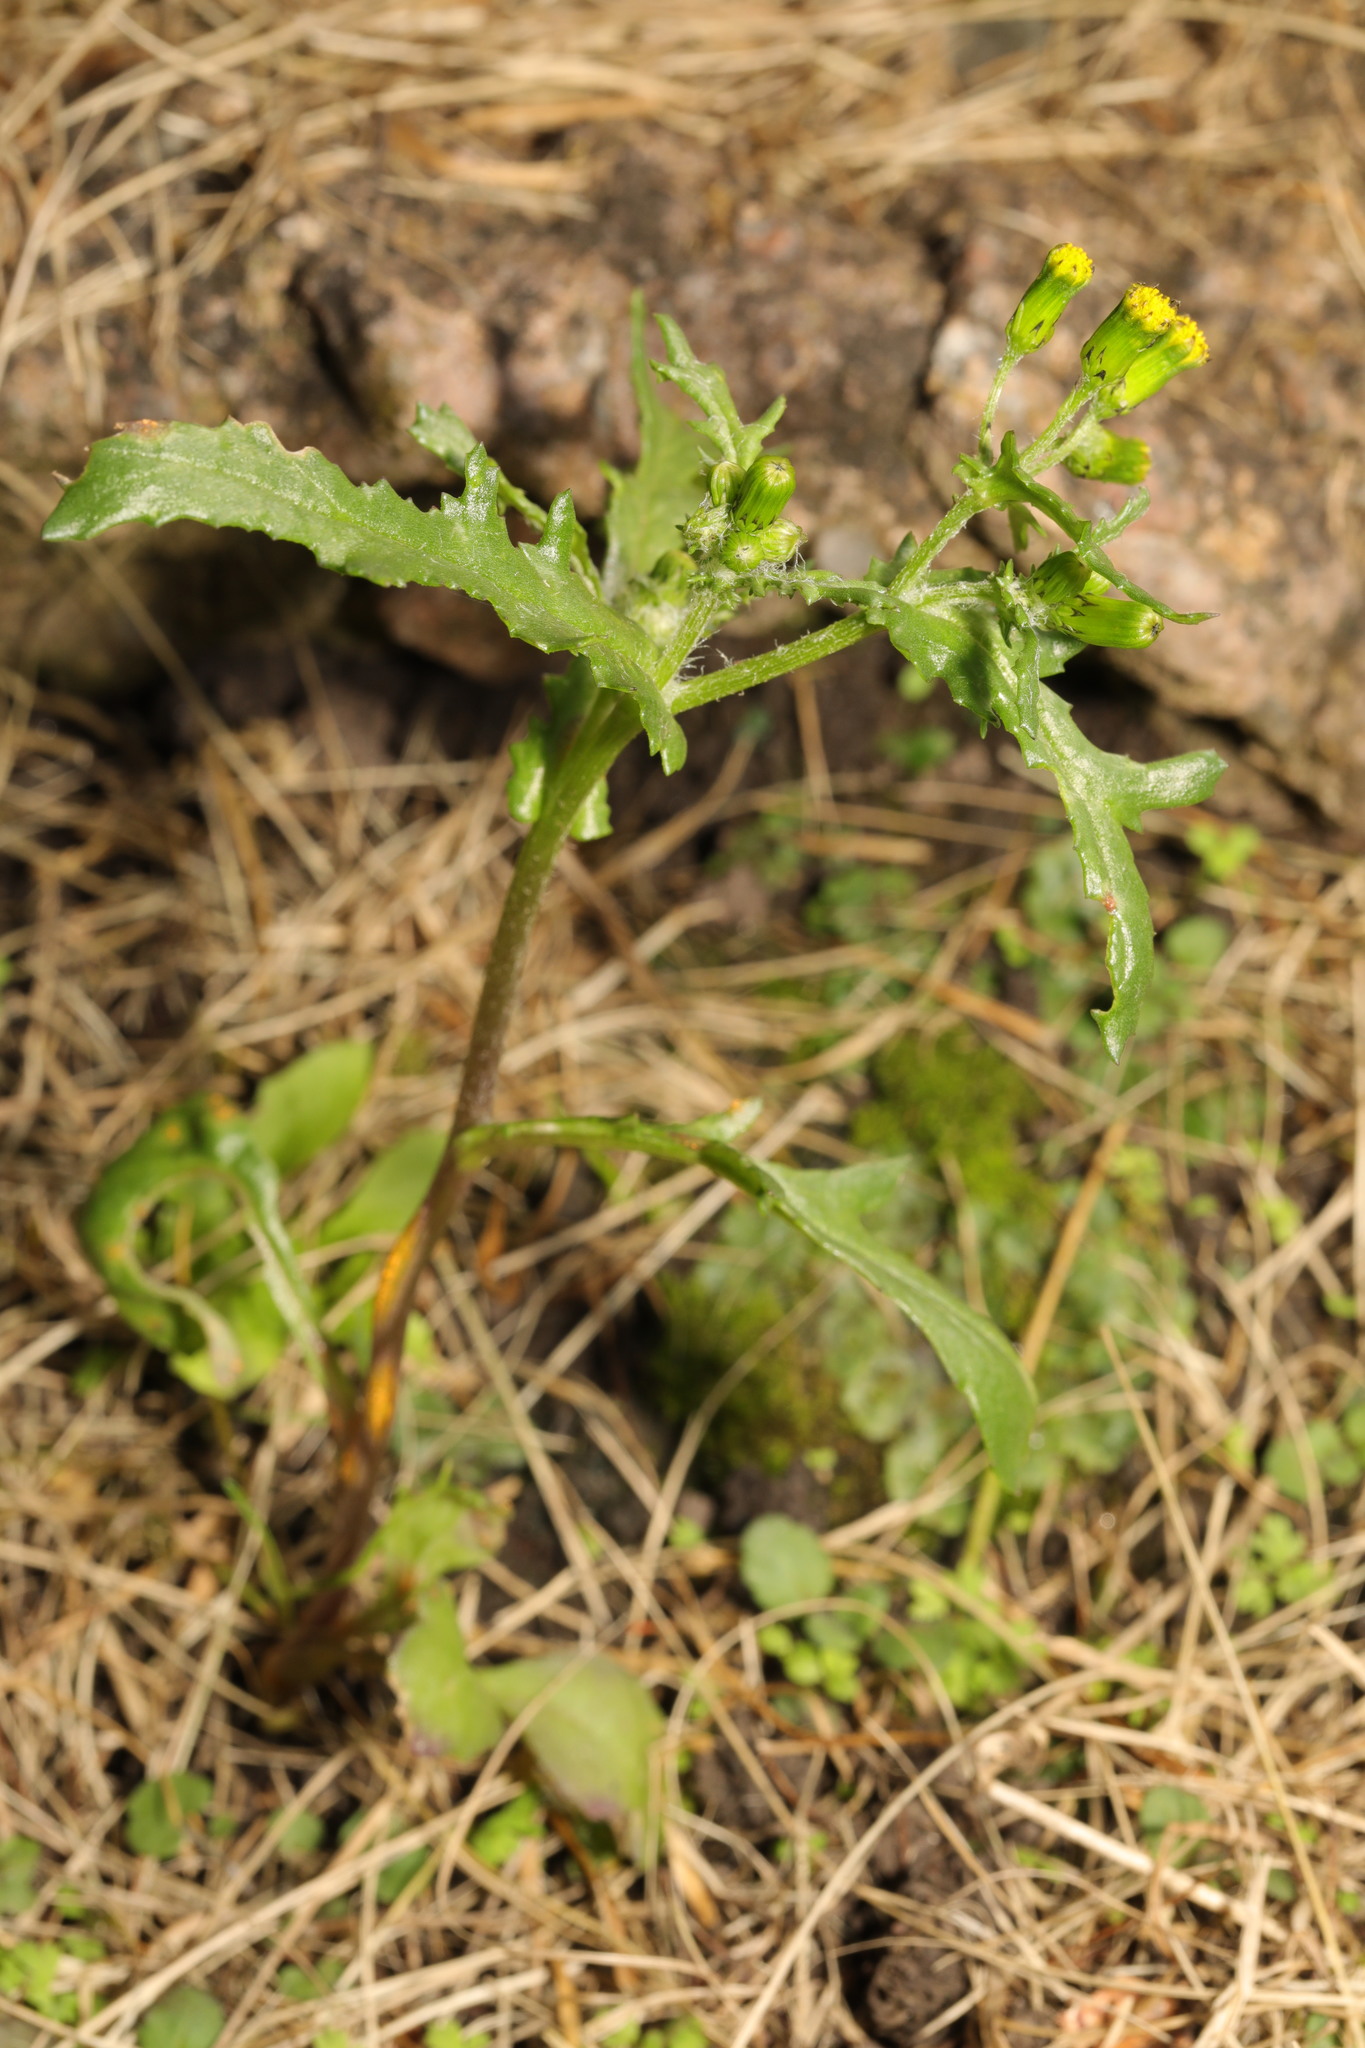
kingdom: Plantae
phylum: Tracheophyta
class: Magnoliopsida
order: Asterales
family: Asteraceae
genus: Senecio
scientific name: Senecio vulgaris
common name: Old-man-in-the-spring
